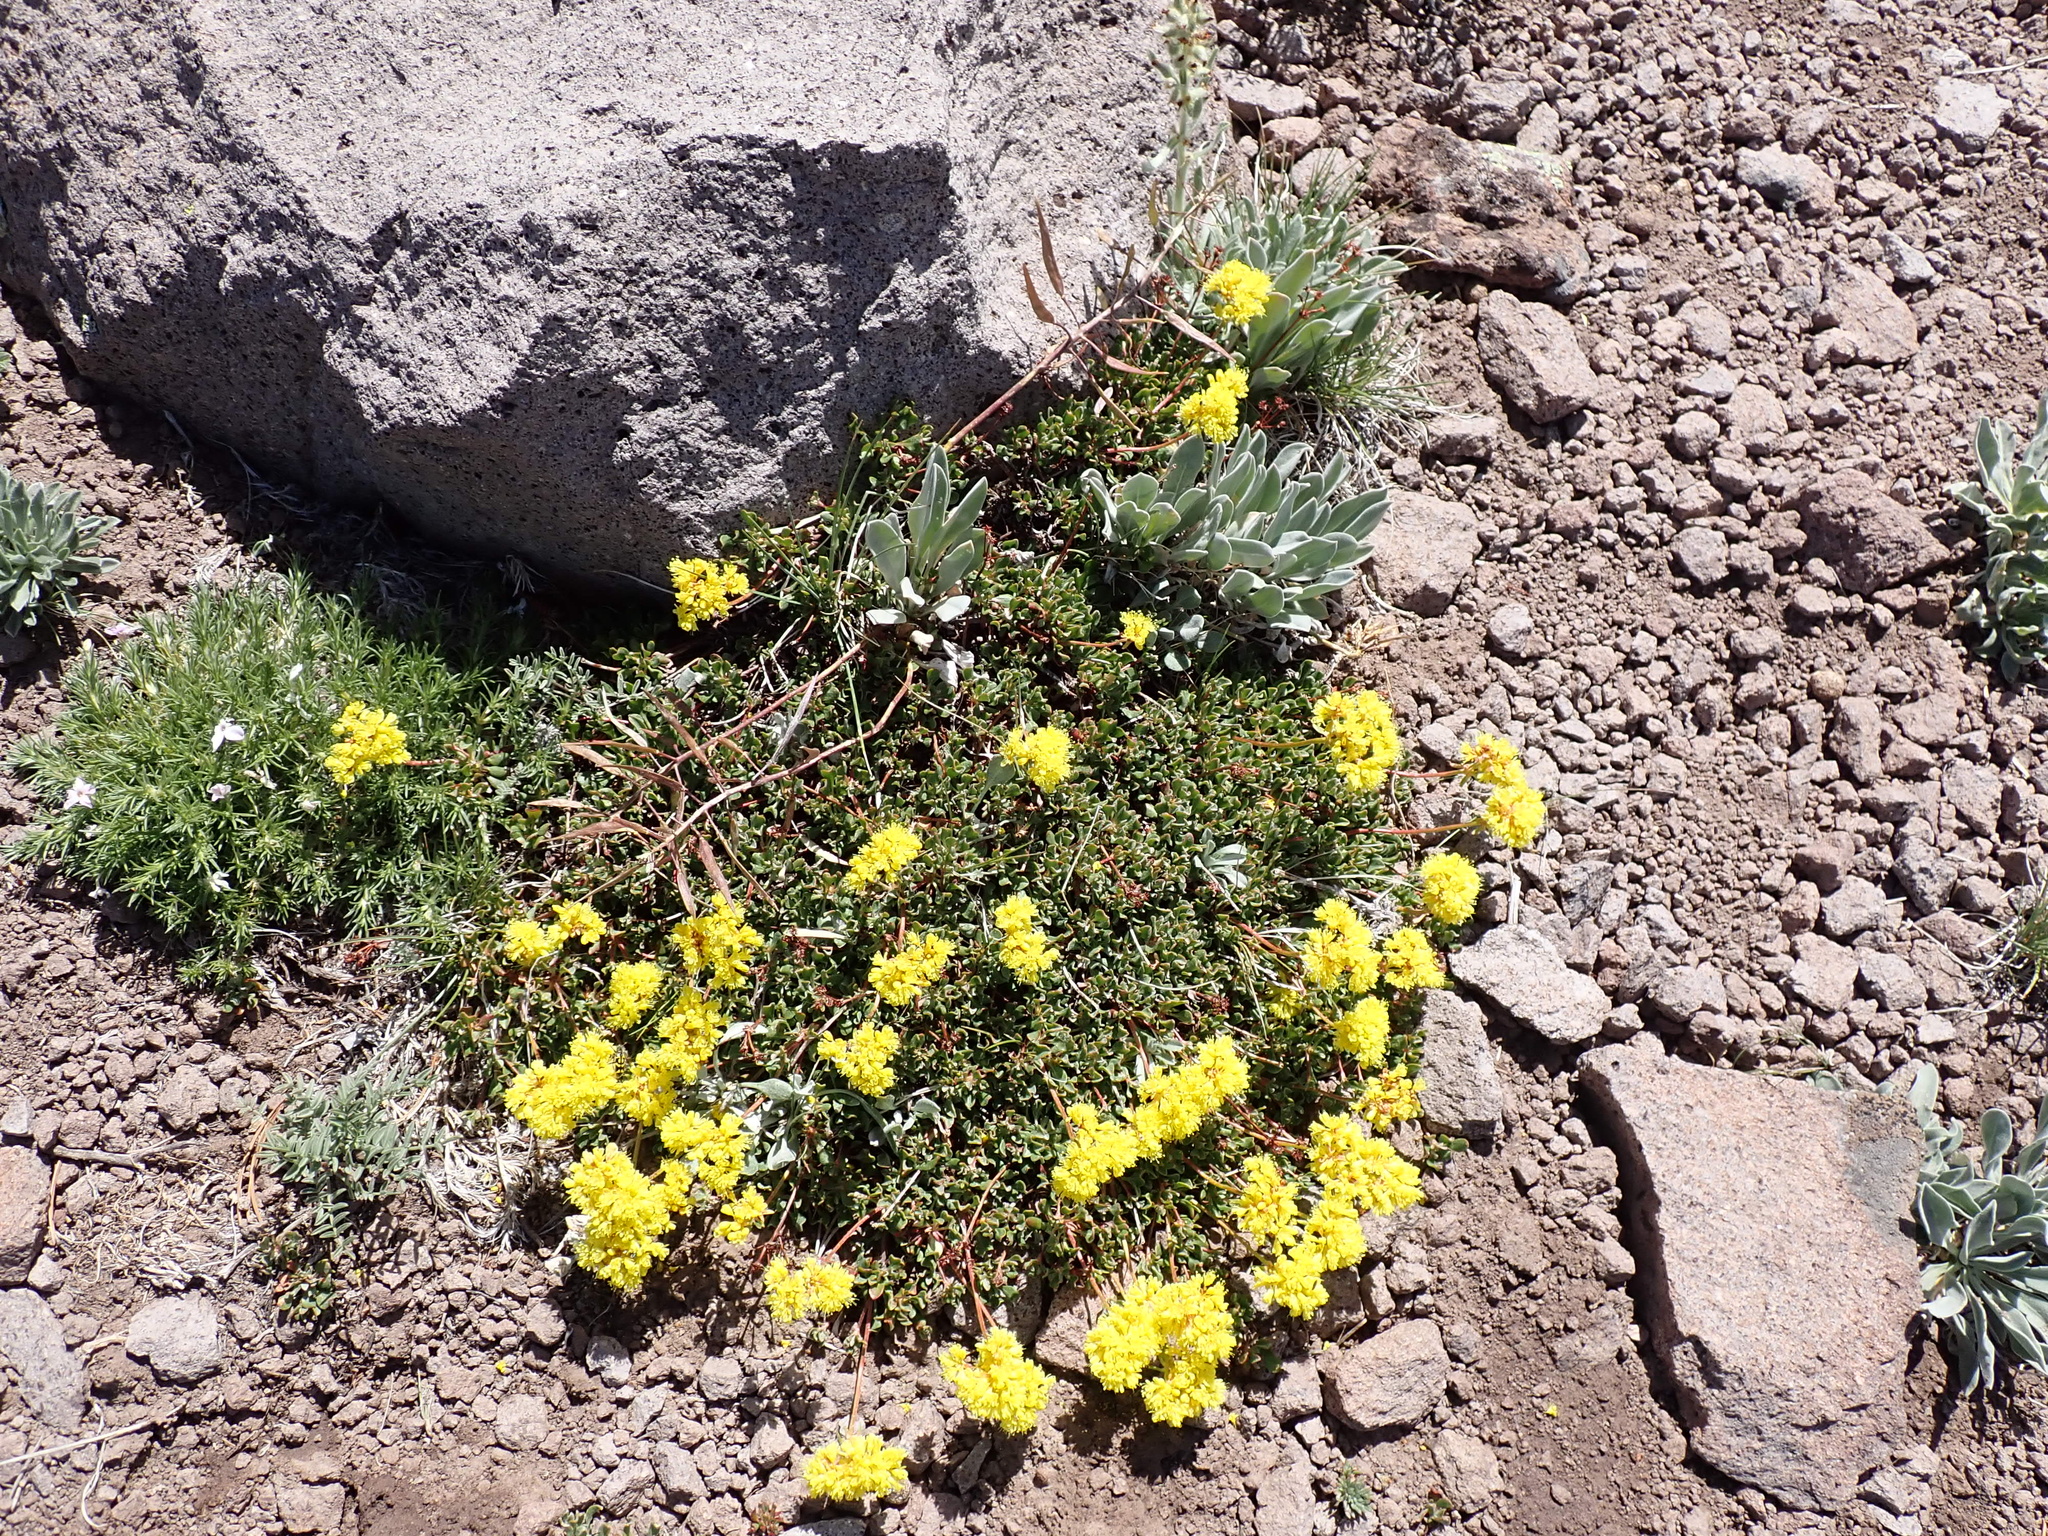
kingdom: Plantae
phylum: Tracheophyta
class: Magnoliopsida
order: Caryophyllales
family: Polygonaceae
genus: Eriogonum
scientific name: Eriogonum umbellatum
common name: Sulfur-buckwheat
